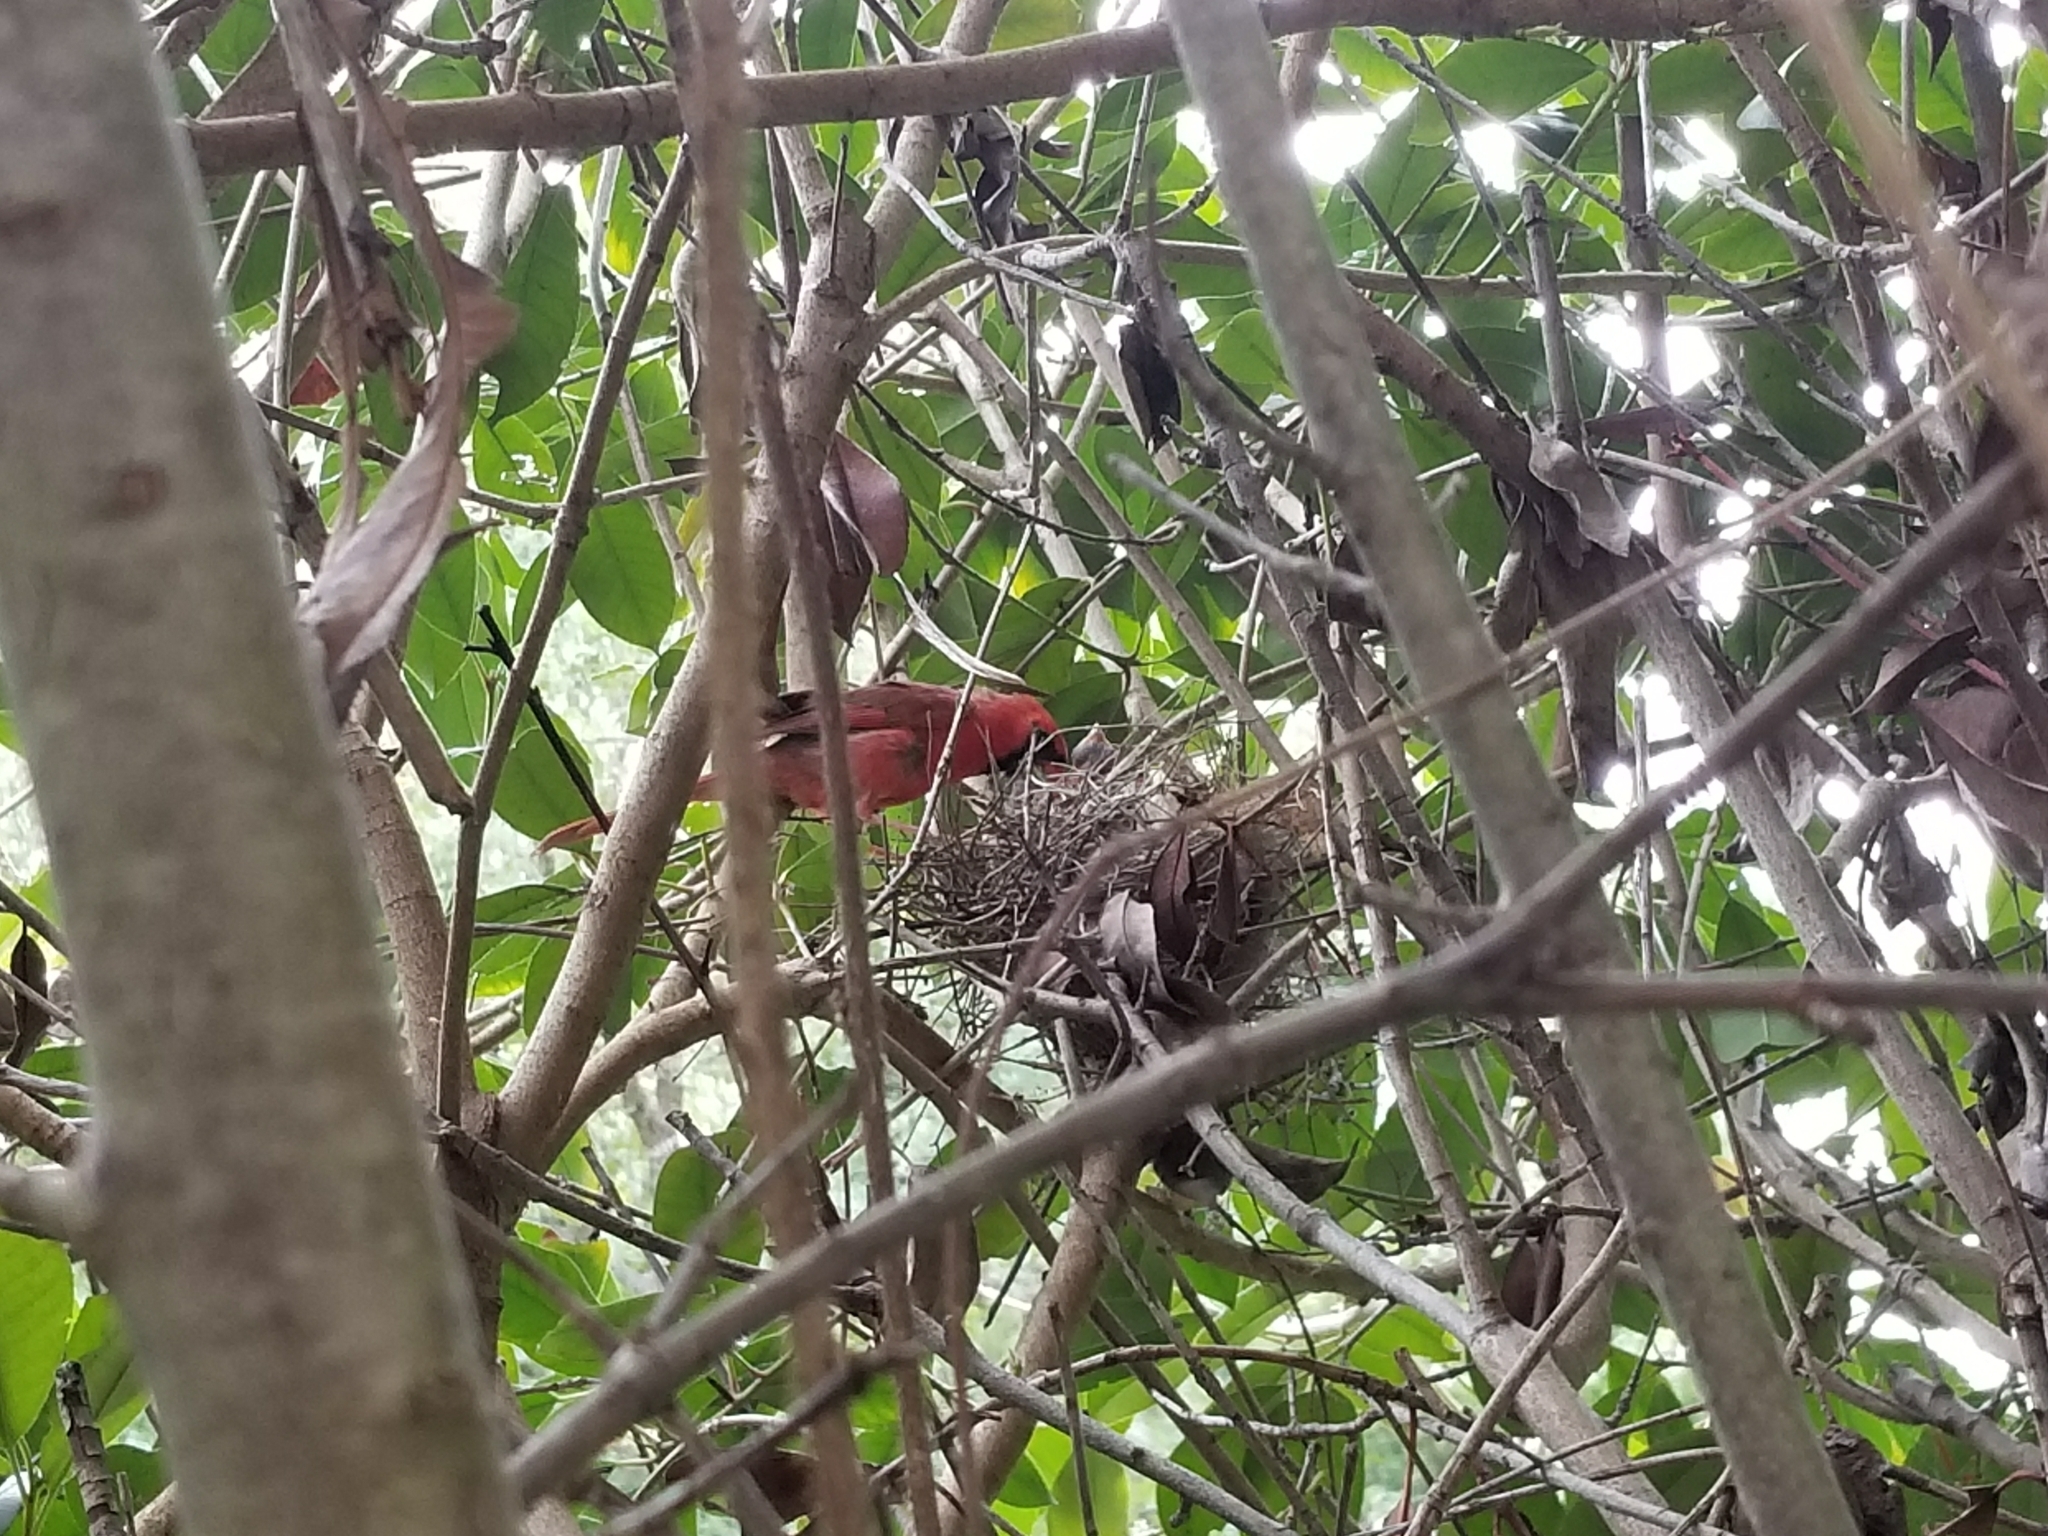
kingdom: Animalia
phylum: Chordata
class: Aves
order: Passeriformes
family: Cardinalidae
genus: Cardinalis
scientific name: Cardinalis cardinalis
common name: Northern cardinal
